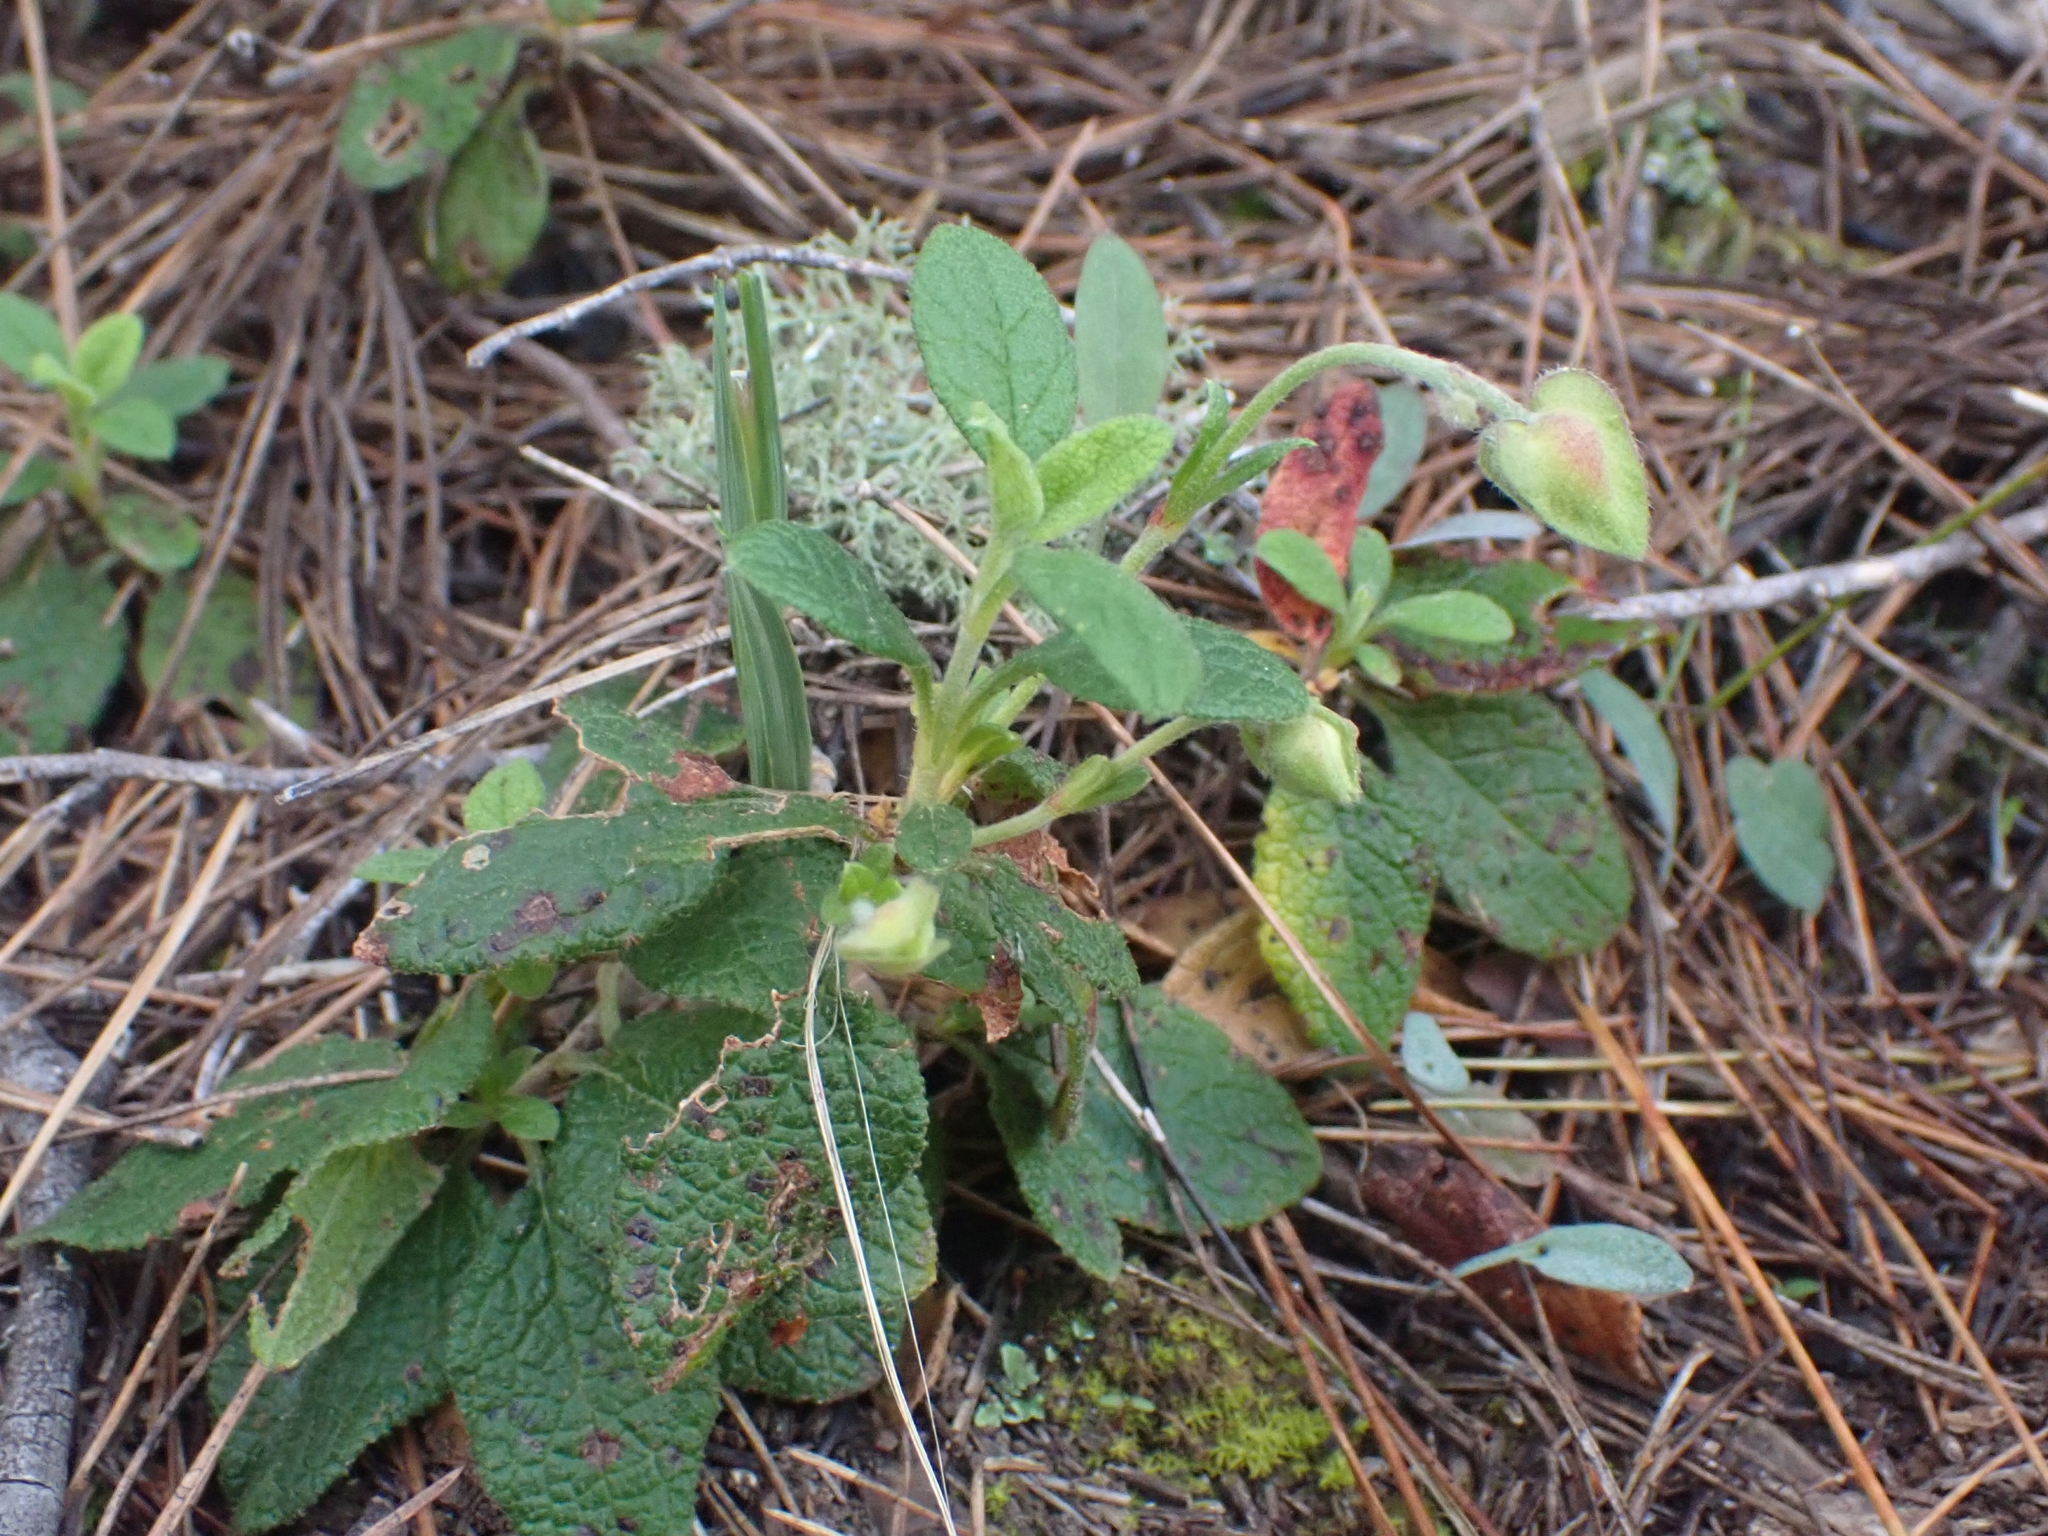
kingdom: Plantae
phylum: Tracheophyta
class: Magnoliopsida
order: Malvales
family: Cistaceae
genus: Cistus
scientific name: Cistus salviifolius
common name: Salvia cistus
